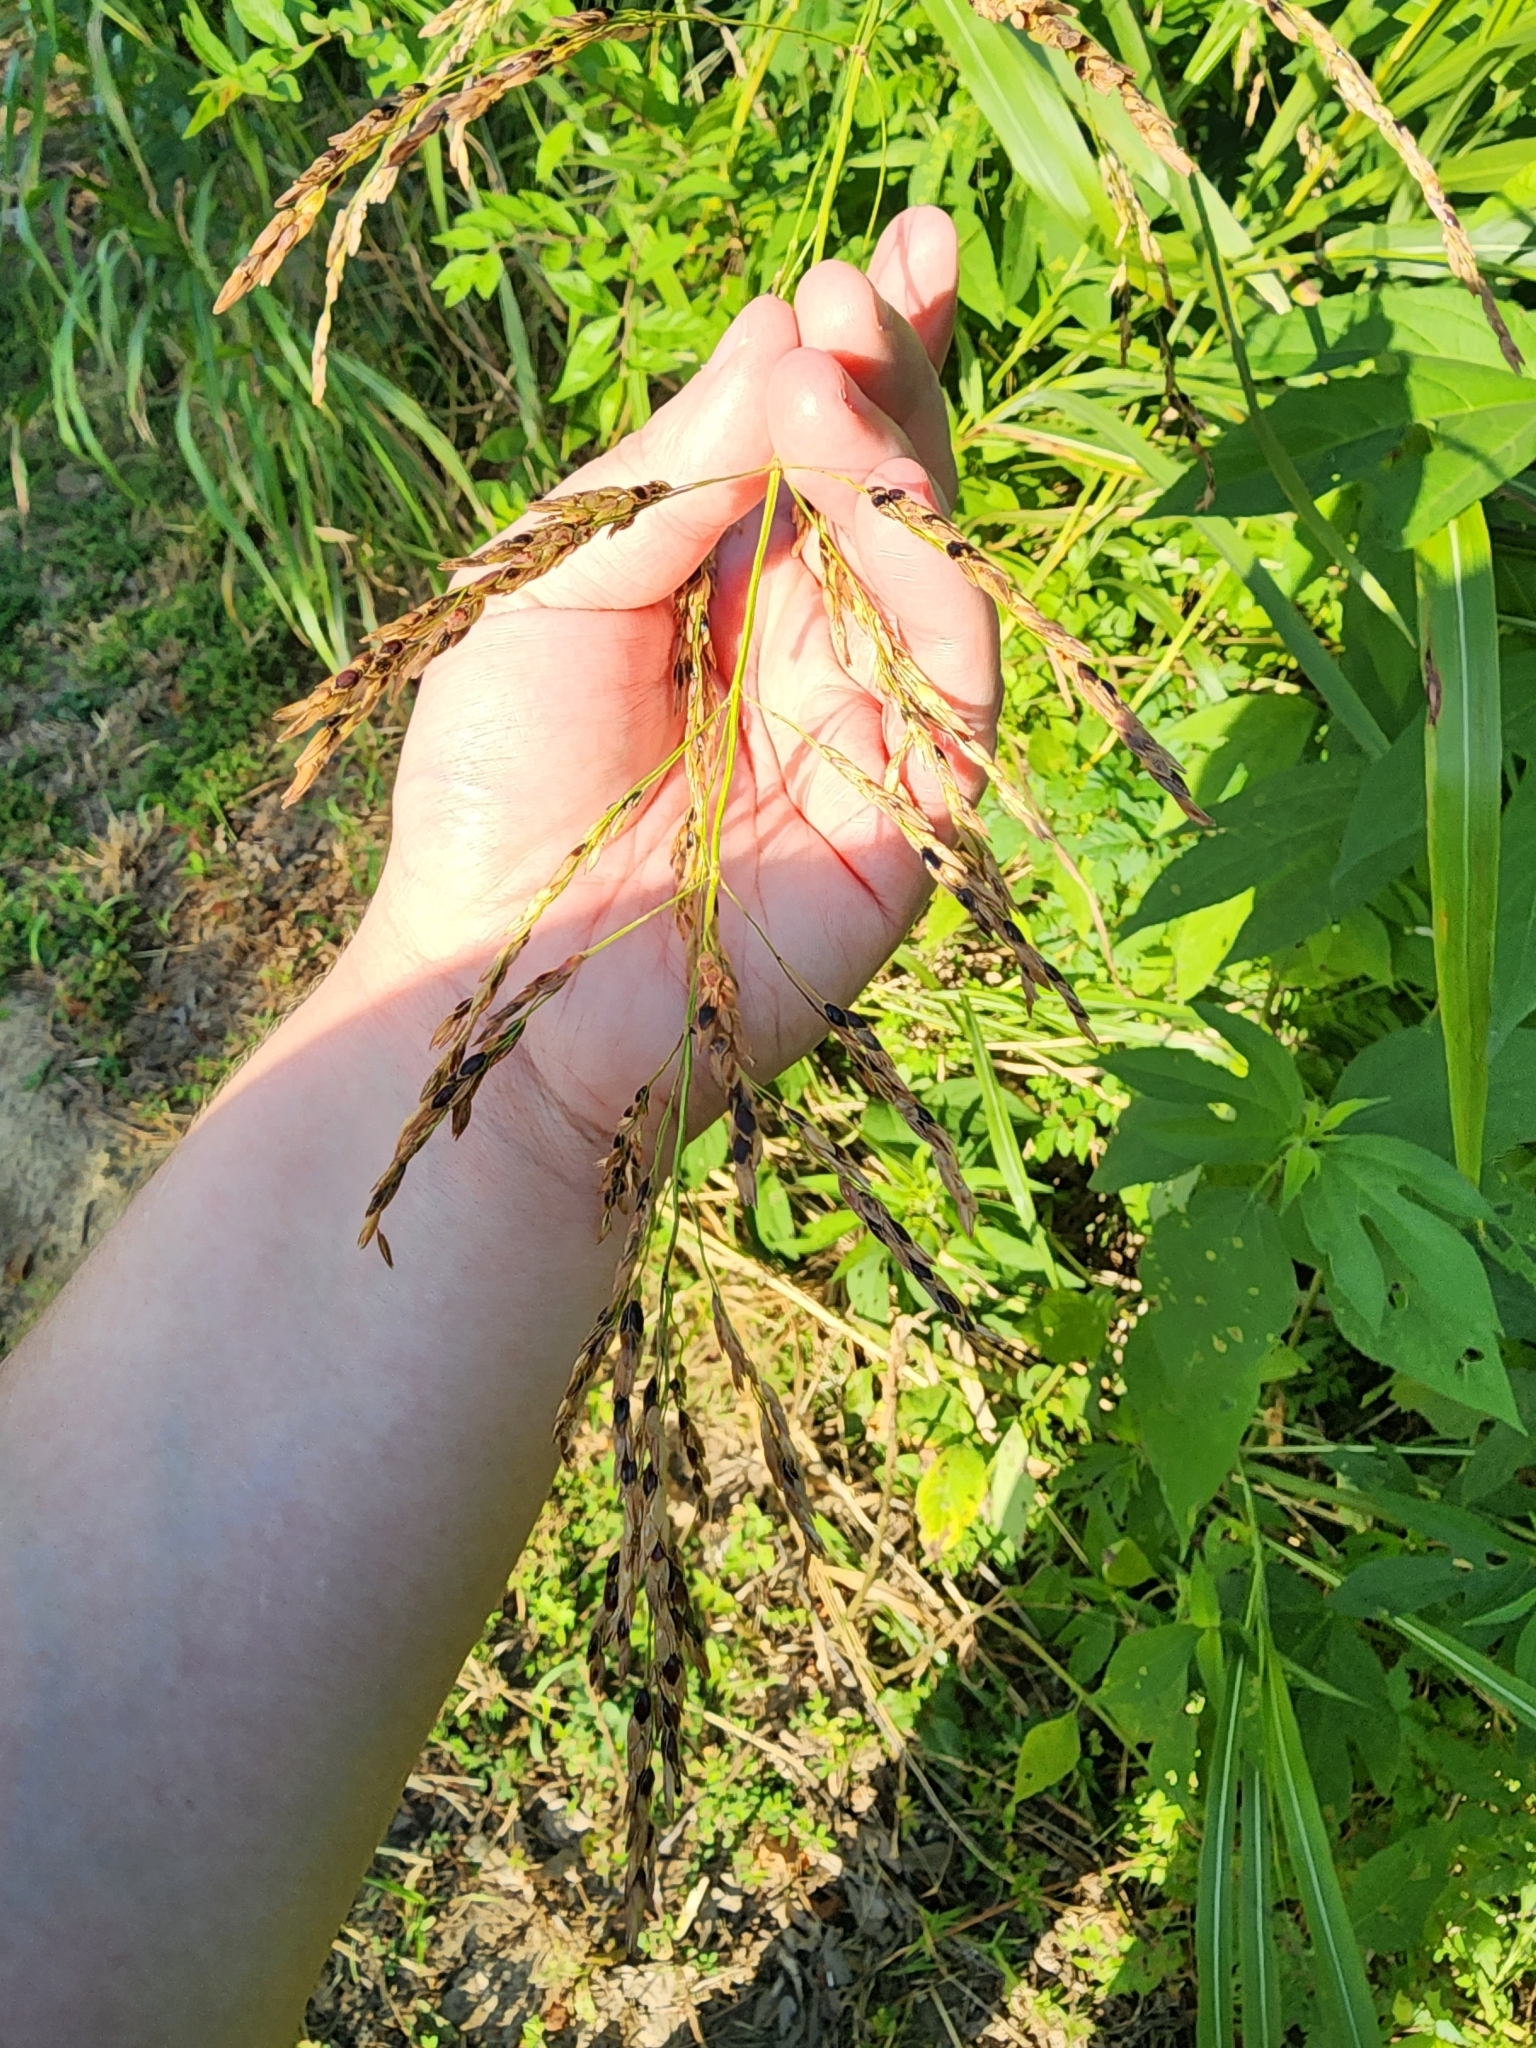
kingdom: Plantae
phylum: Tracheophyta
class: Liliopsida
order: Poales
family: Poaceae
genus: Sorghum
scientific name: Sorghum halepense
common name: Johnson-grass
